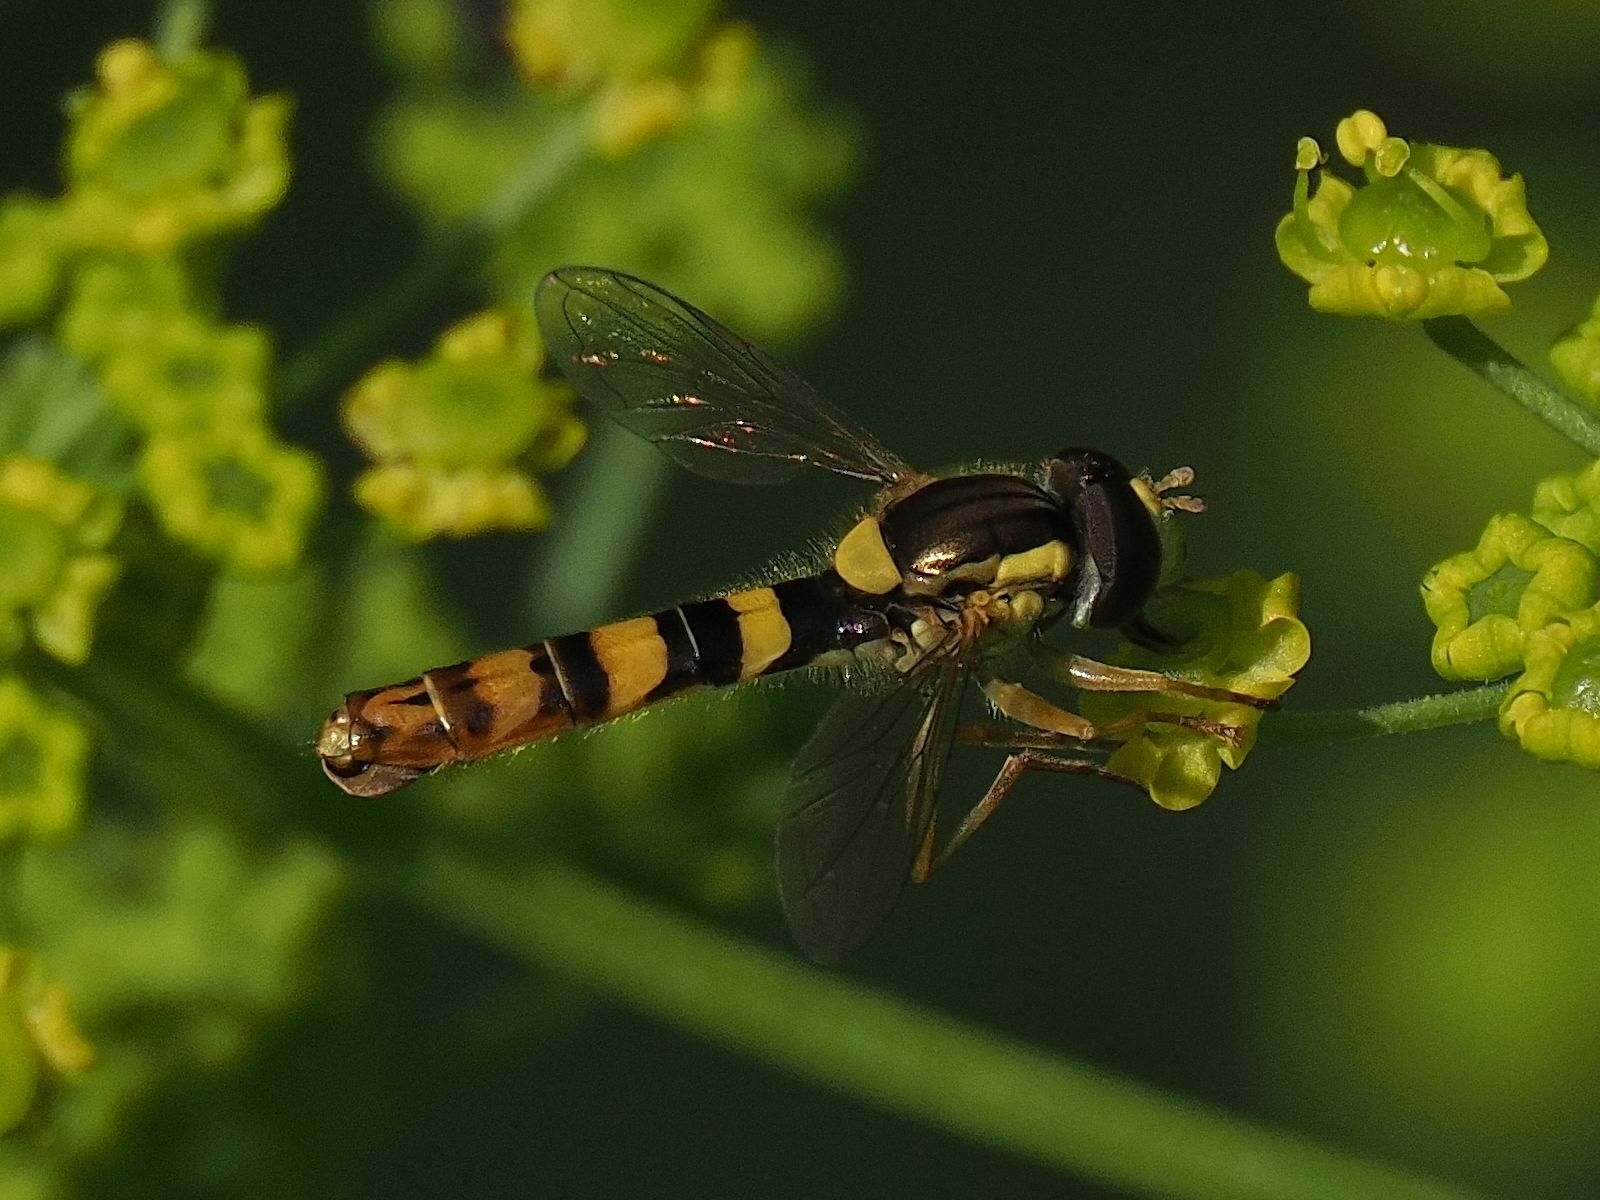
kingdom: Animalia
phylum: Arthropoda
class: Insecta
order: Diptera
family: Syrphidae
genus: Sphaerophoria
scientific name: Sphaerophoria scripta
